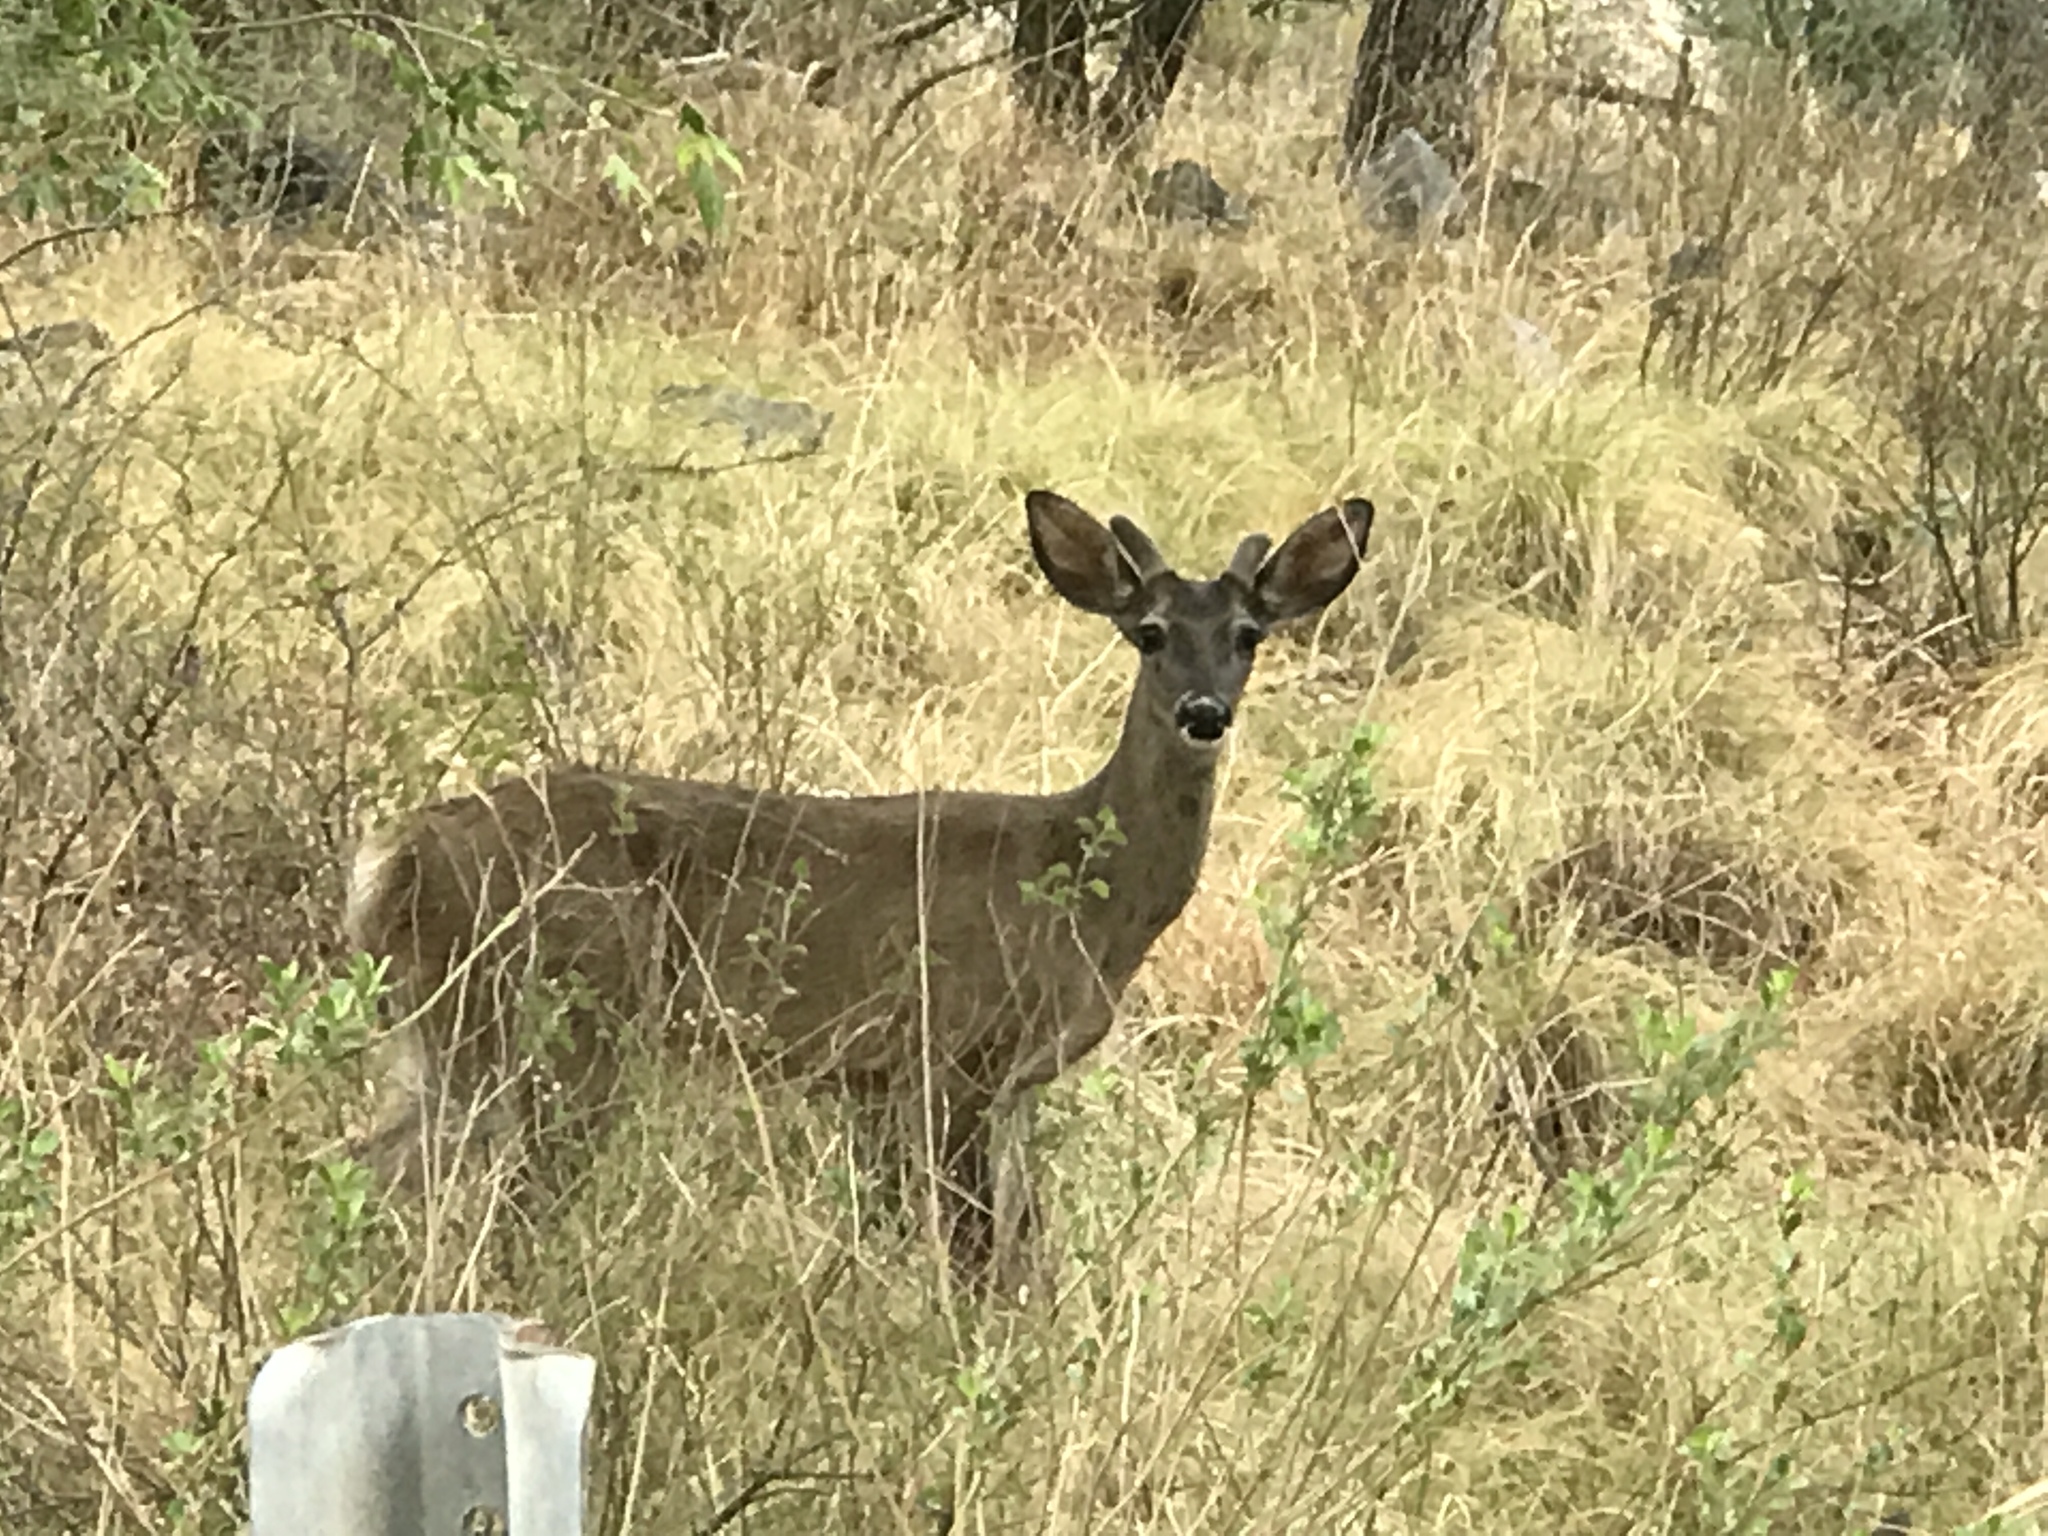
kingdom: Animalia
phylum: Chordata
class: Mammalia
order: Artiodactyla
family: Cervidae
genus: Odocoileus
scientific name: Odocoileus virginianus
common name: White-tailed deer
